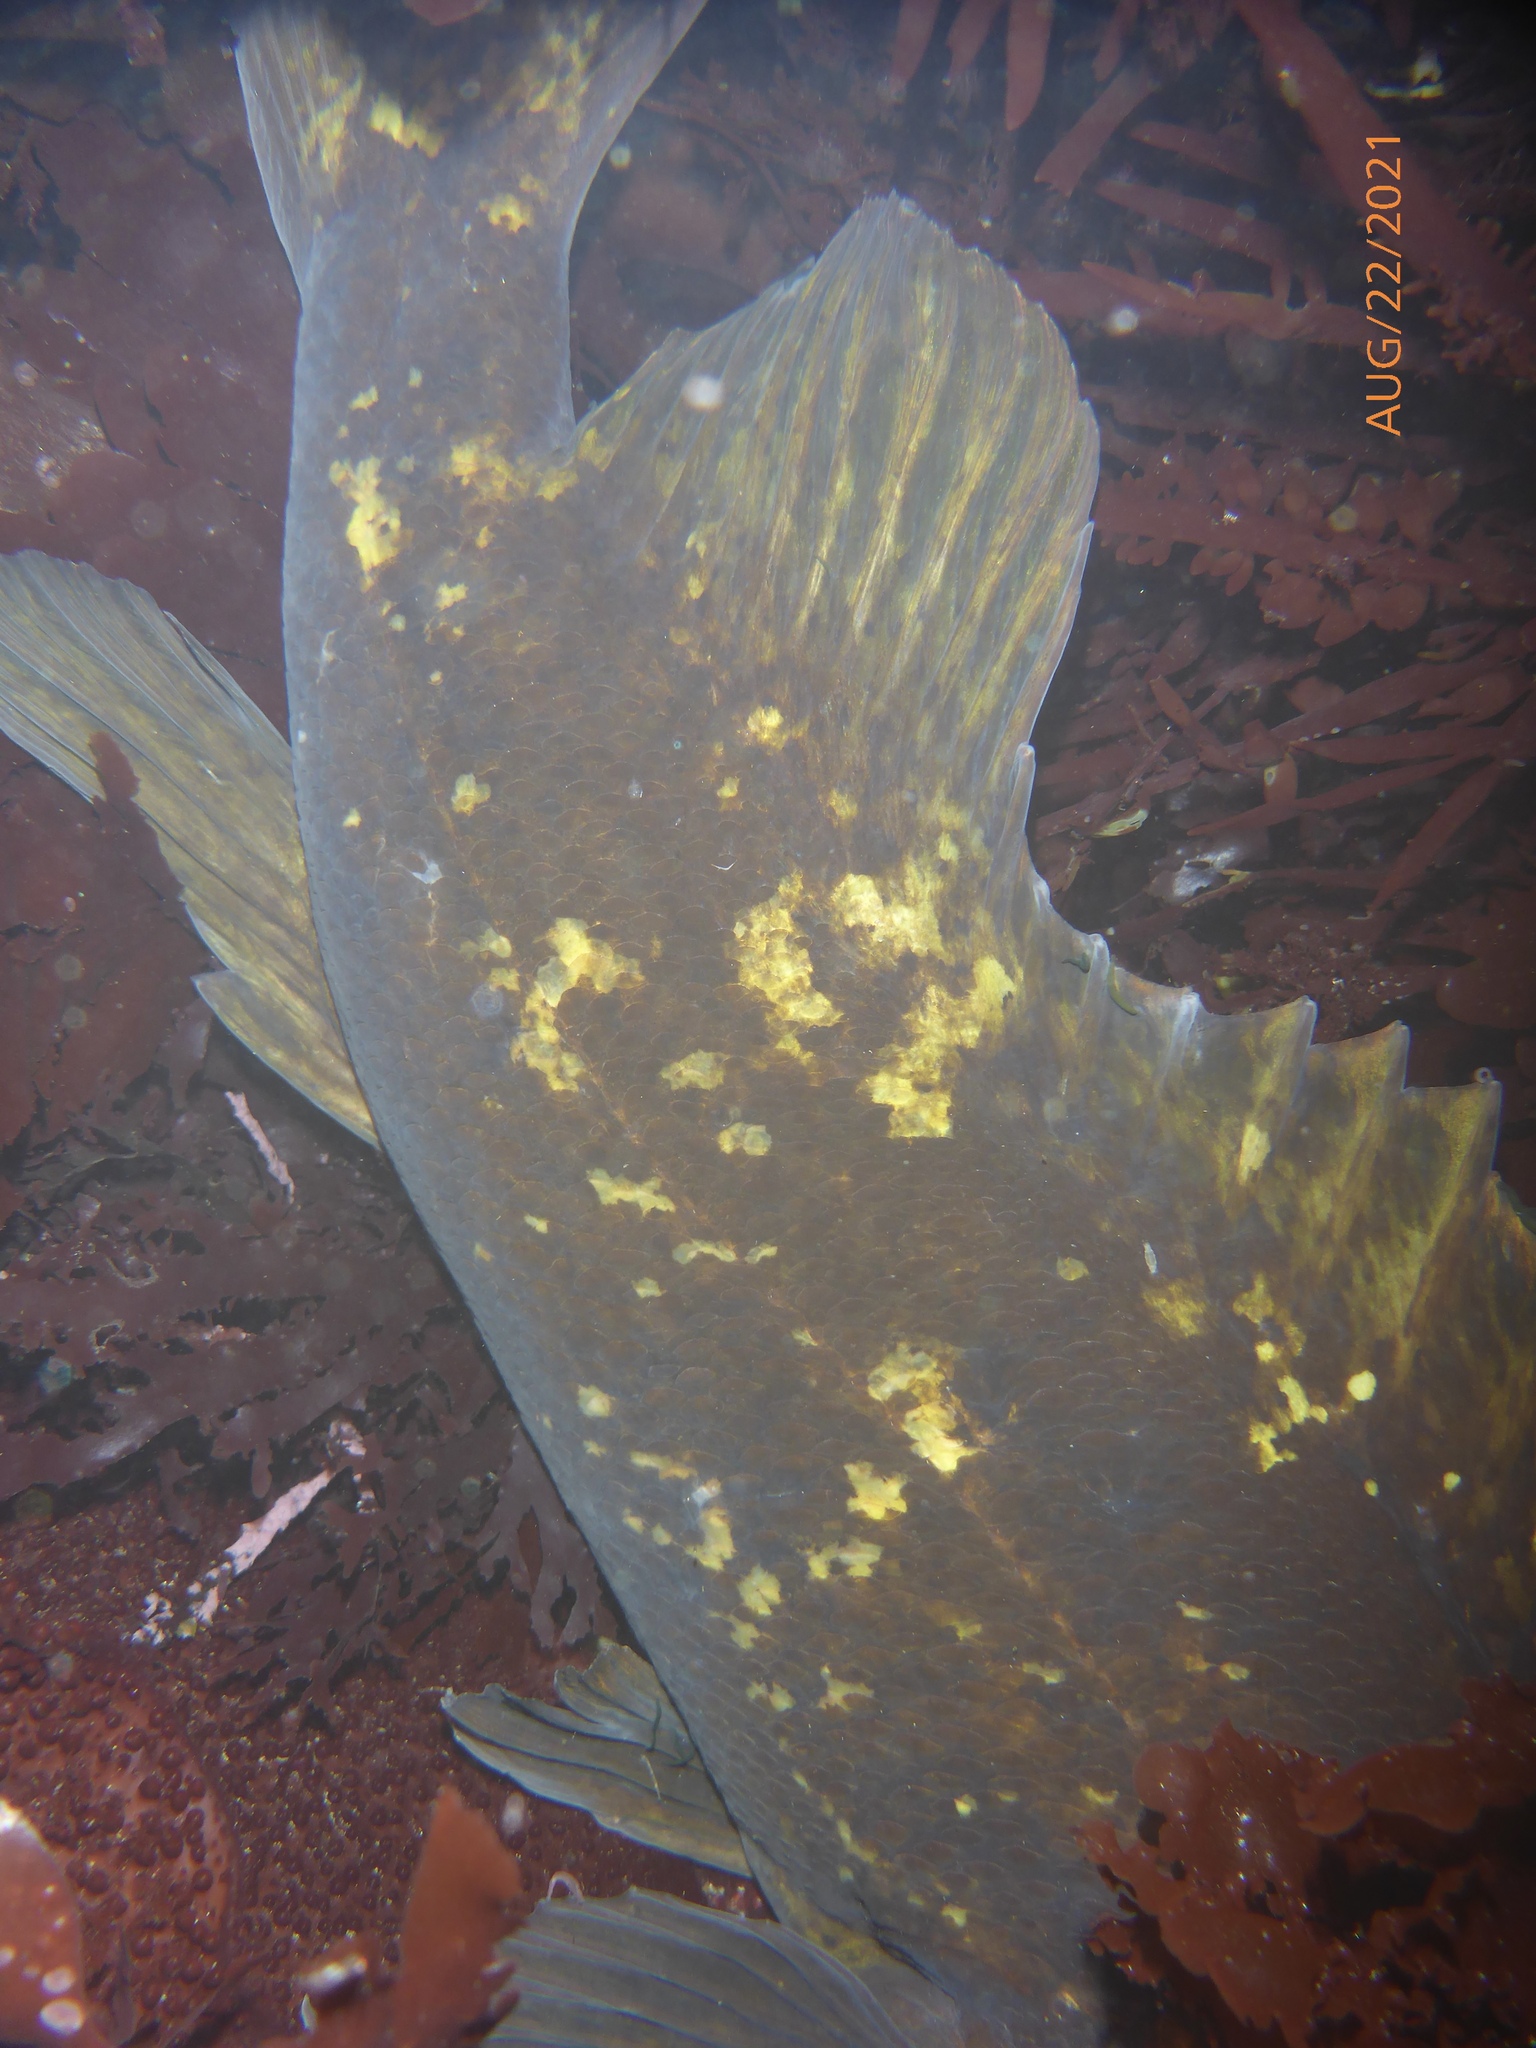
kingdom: Animalia
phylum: Chordata
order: Scorpaeniformes
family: Sebastidae
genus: Sebastes
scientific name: Sebastes rastrelliger
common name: Grass rockfish
